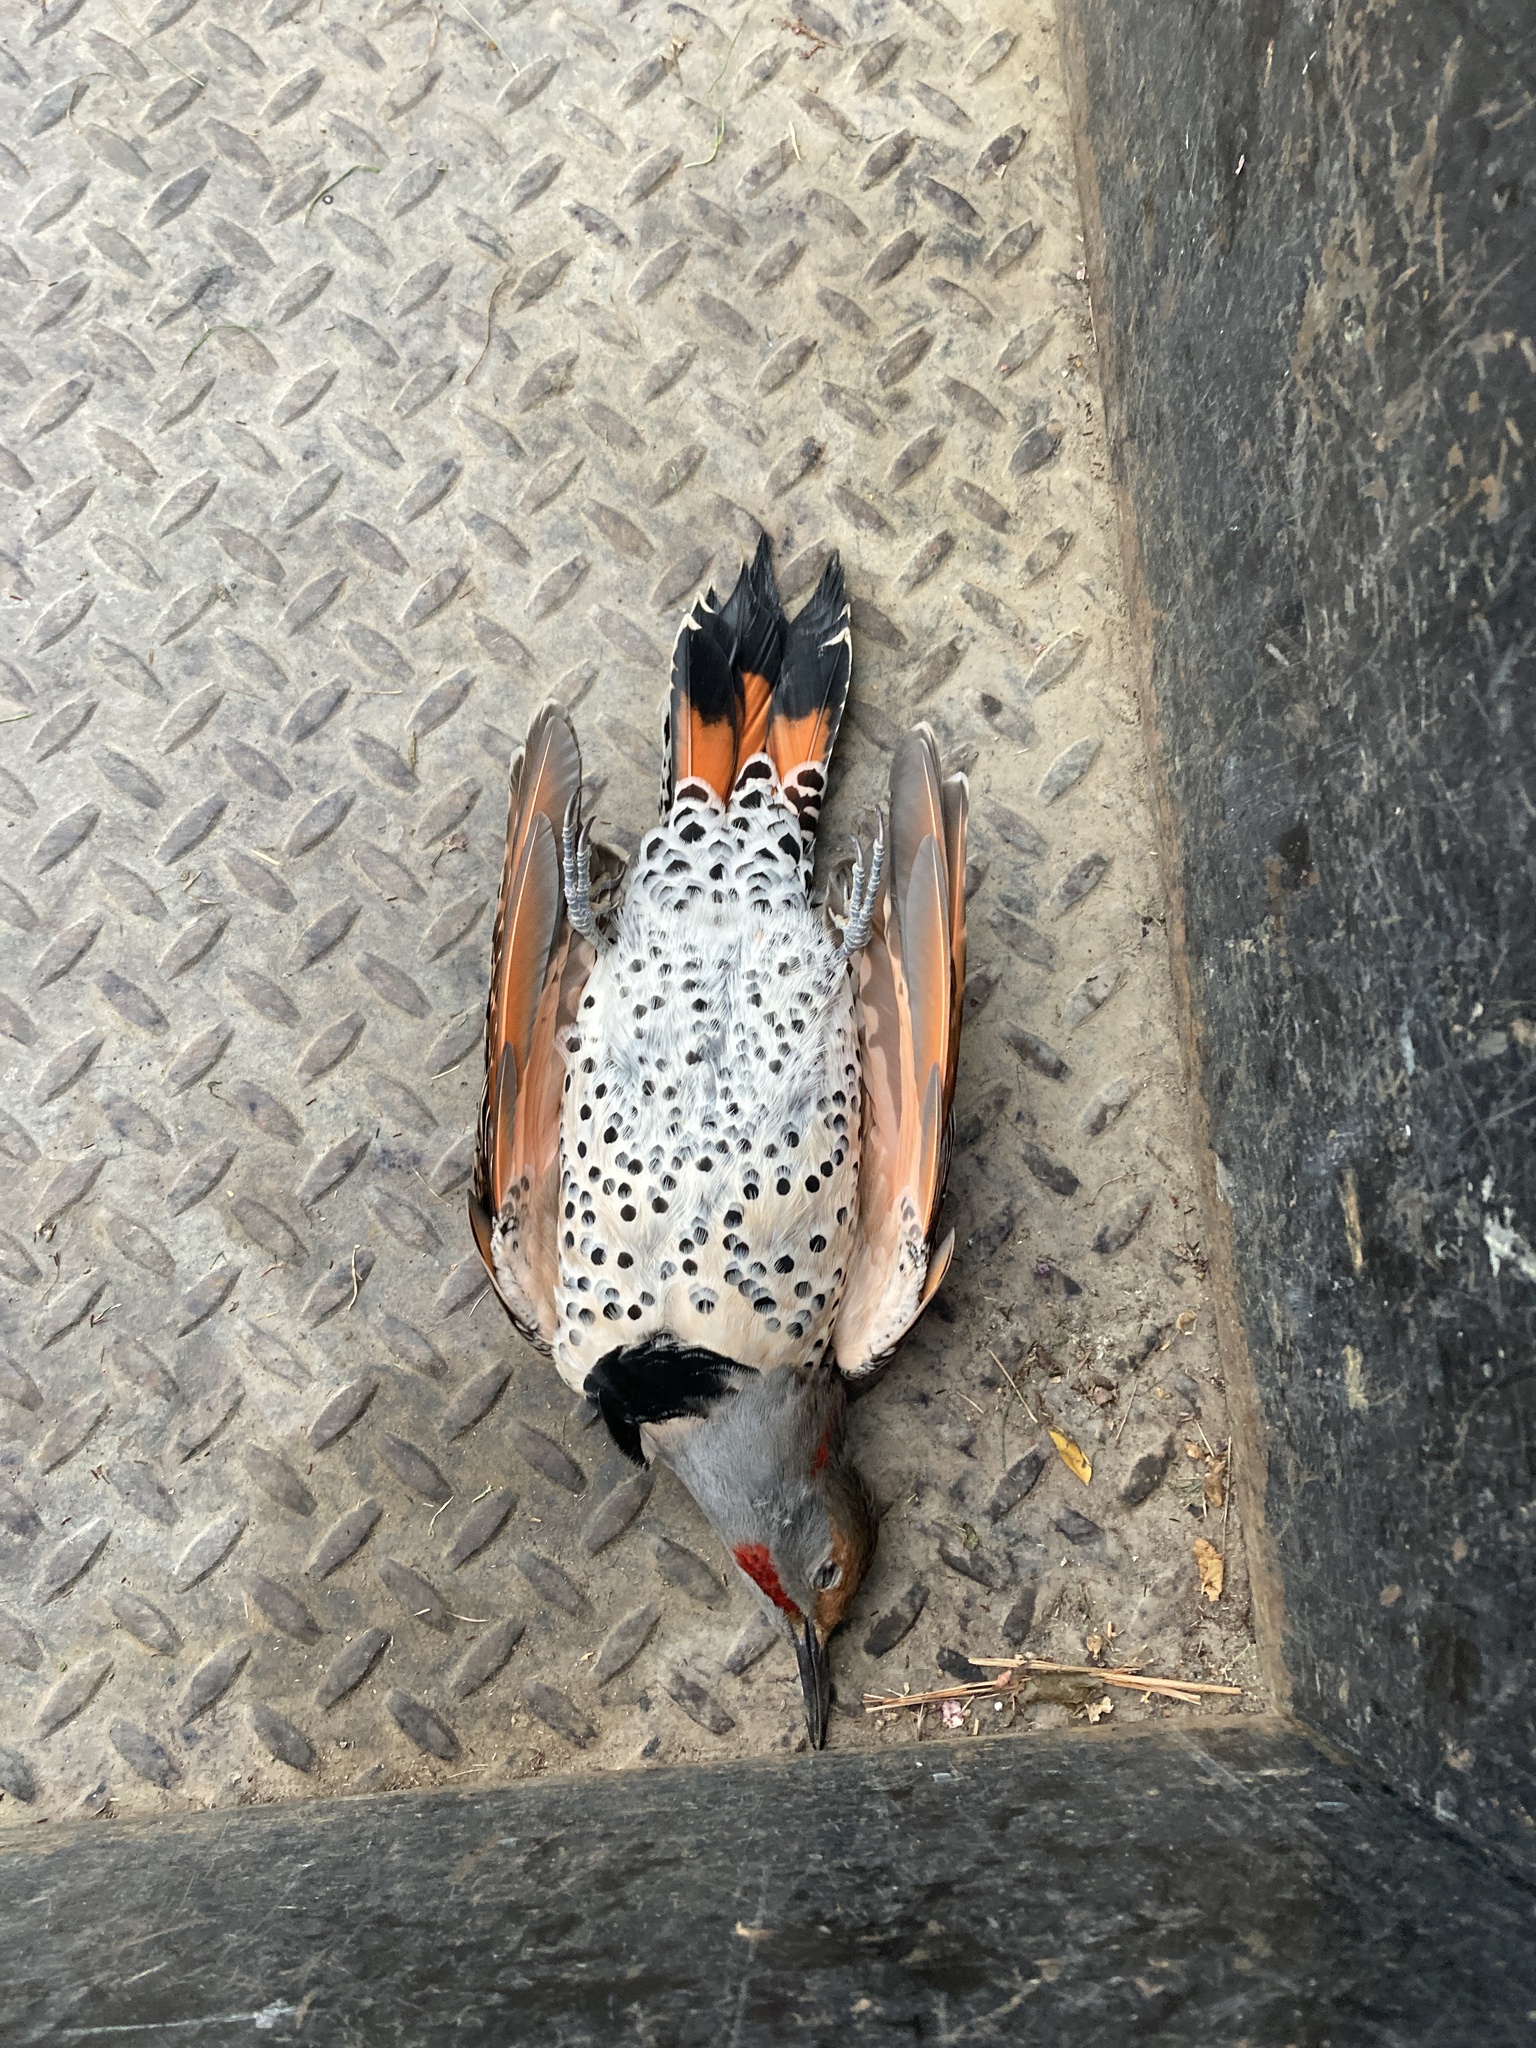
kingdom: Animalia
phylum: Chordata
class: Aves
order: Piciformes
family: Picidae
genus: Colaptes
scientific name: Colaptes auratus
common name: Northern flicker
